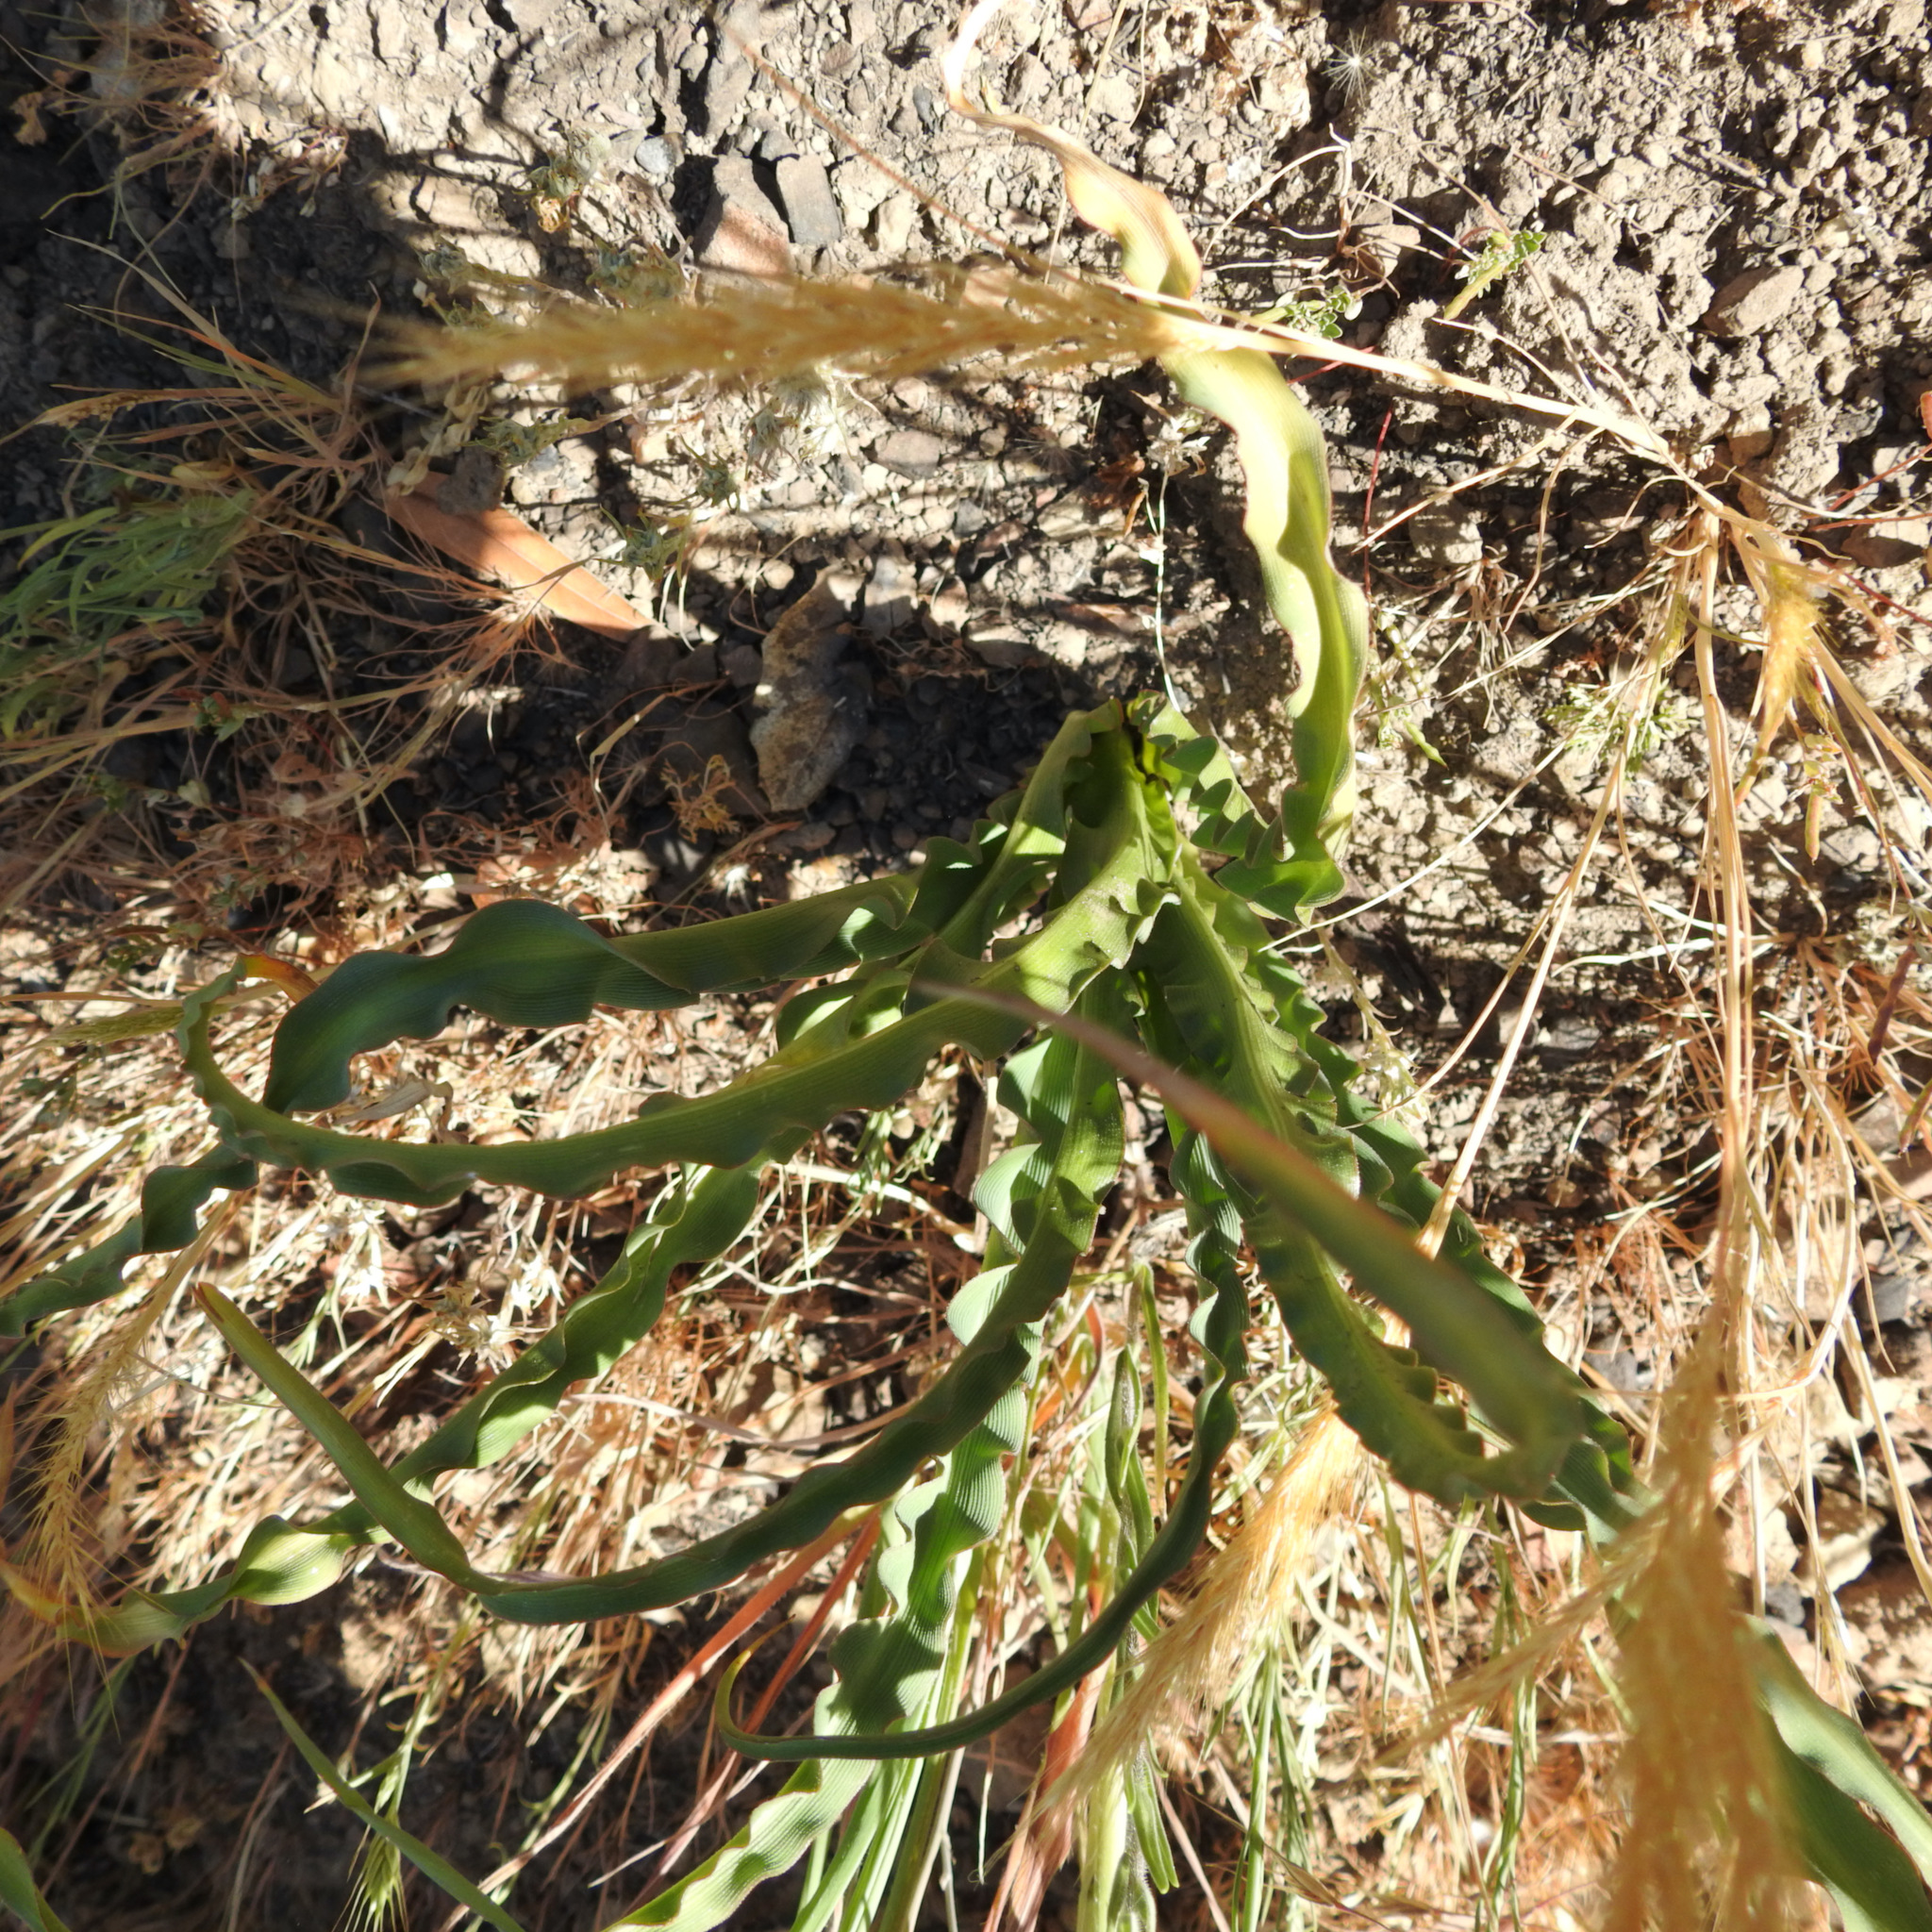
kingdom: Plantae
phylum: Tracheophyta
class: Liliopsida
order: Asparagales
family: Asparagaceae
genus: Chlorogalum
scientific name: Chlorogalum pomeridianum
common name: Amole
